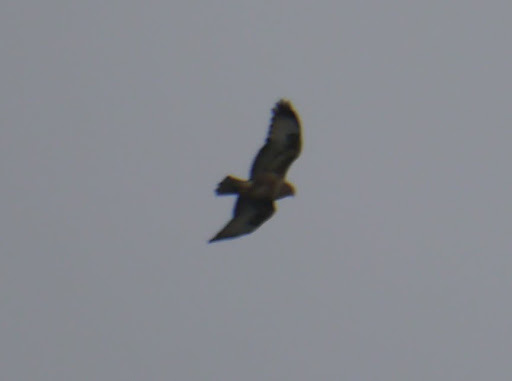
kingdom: Animalia
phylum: Chordata
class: Aves
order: Accipitriformes
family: Accipitridae
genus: Buteo
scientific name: Buteo buteo
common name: Common buzzard
